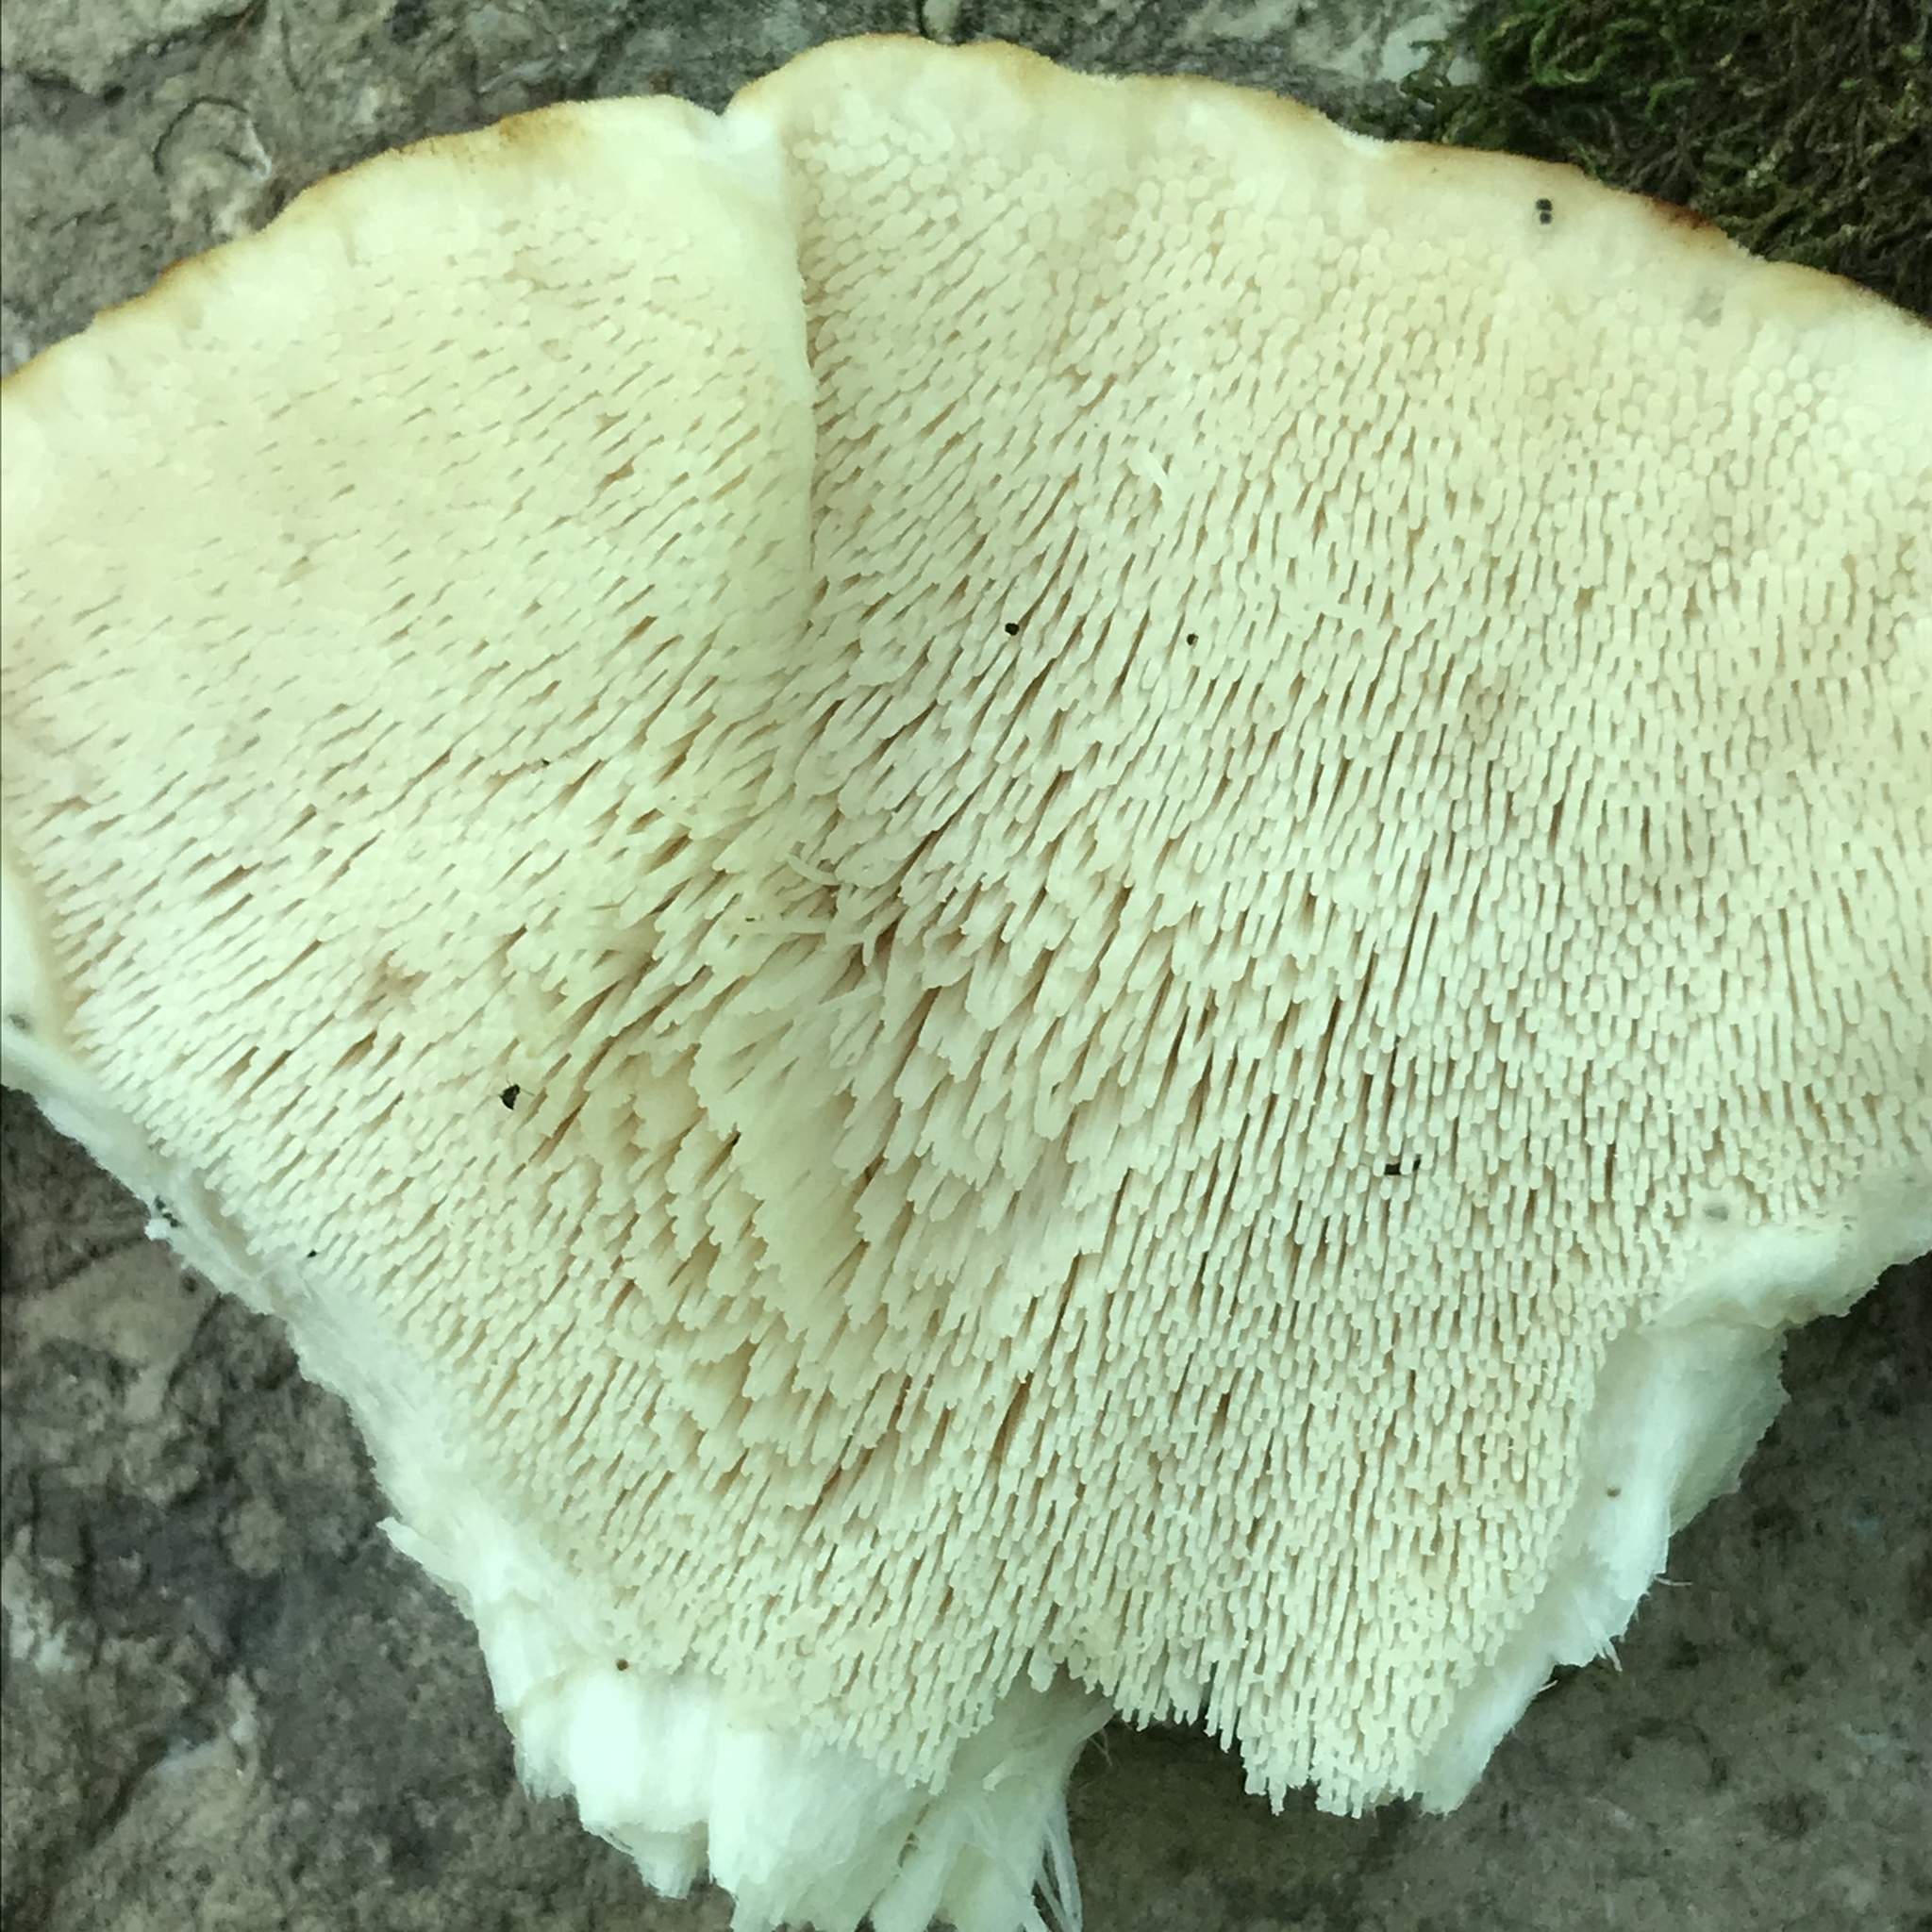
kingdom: Fungi
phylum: Basidiomycota
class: Agaricomycetes
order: Polyporales
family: Meruliaceae
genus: Climacodon
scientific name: Climacodon septentrionalis
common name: Northern tooth
